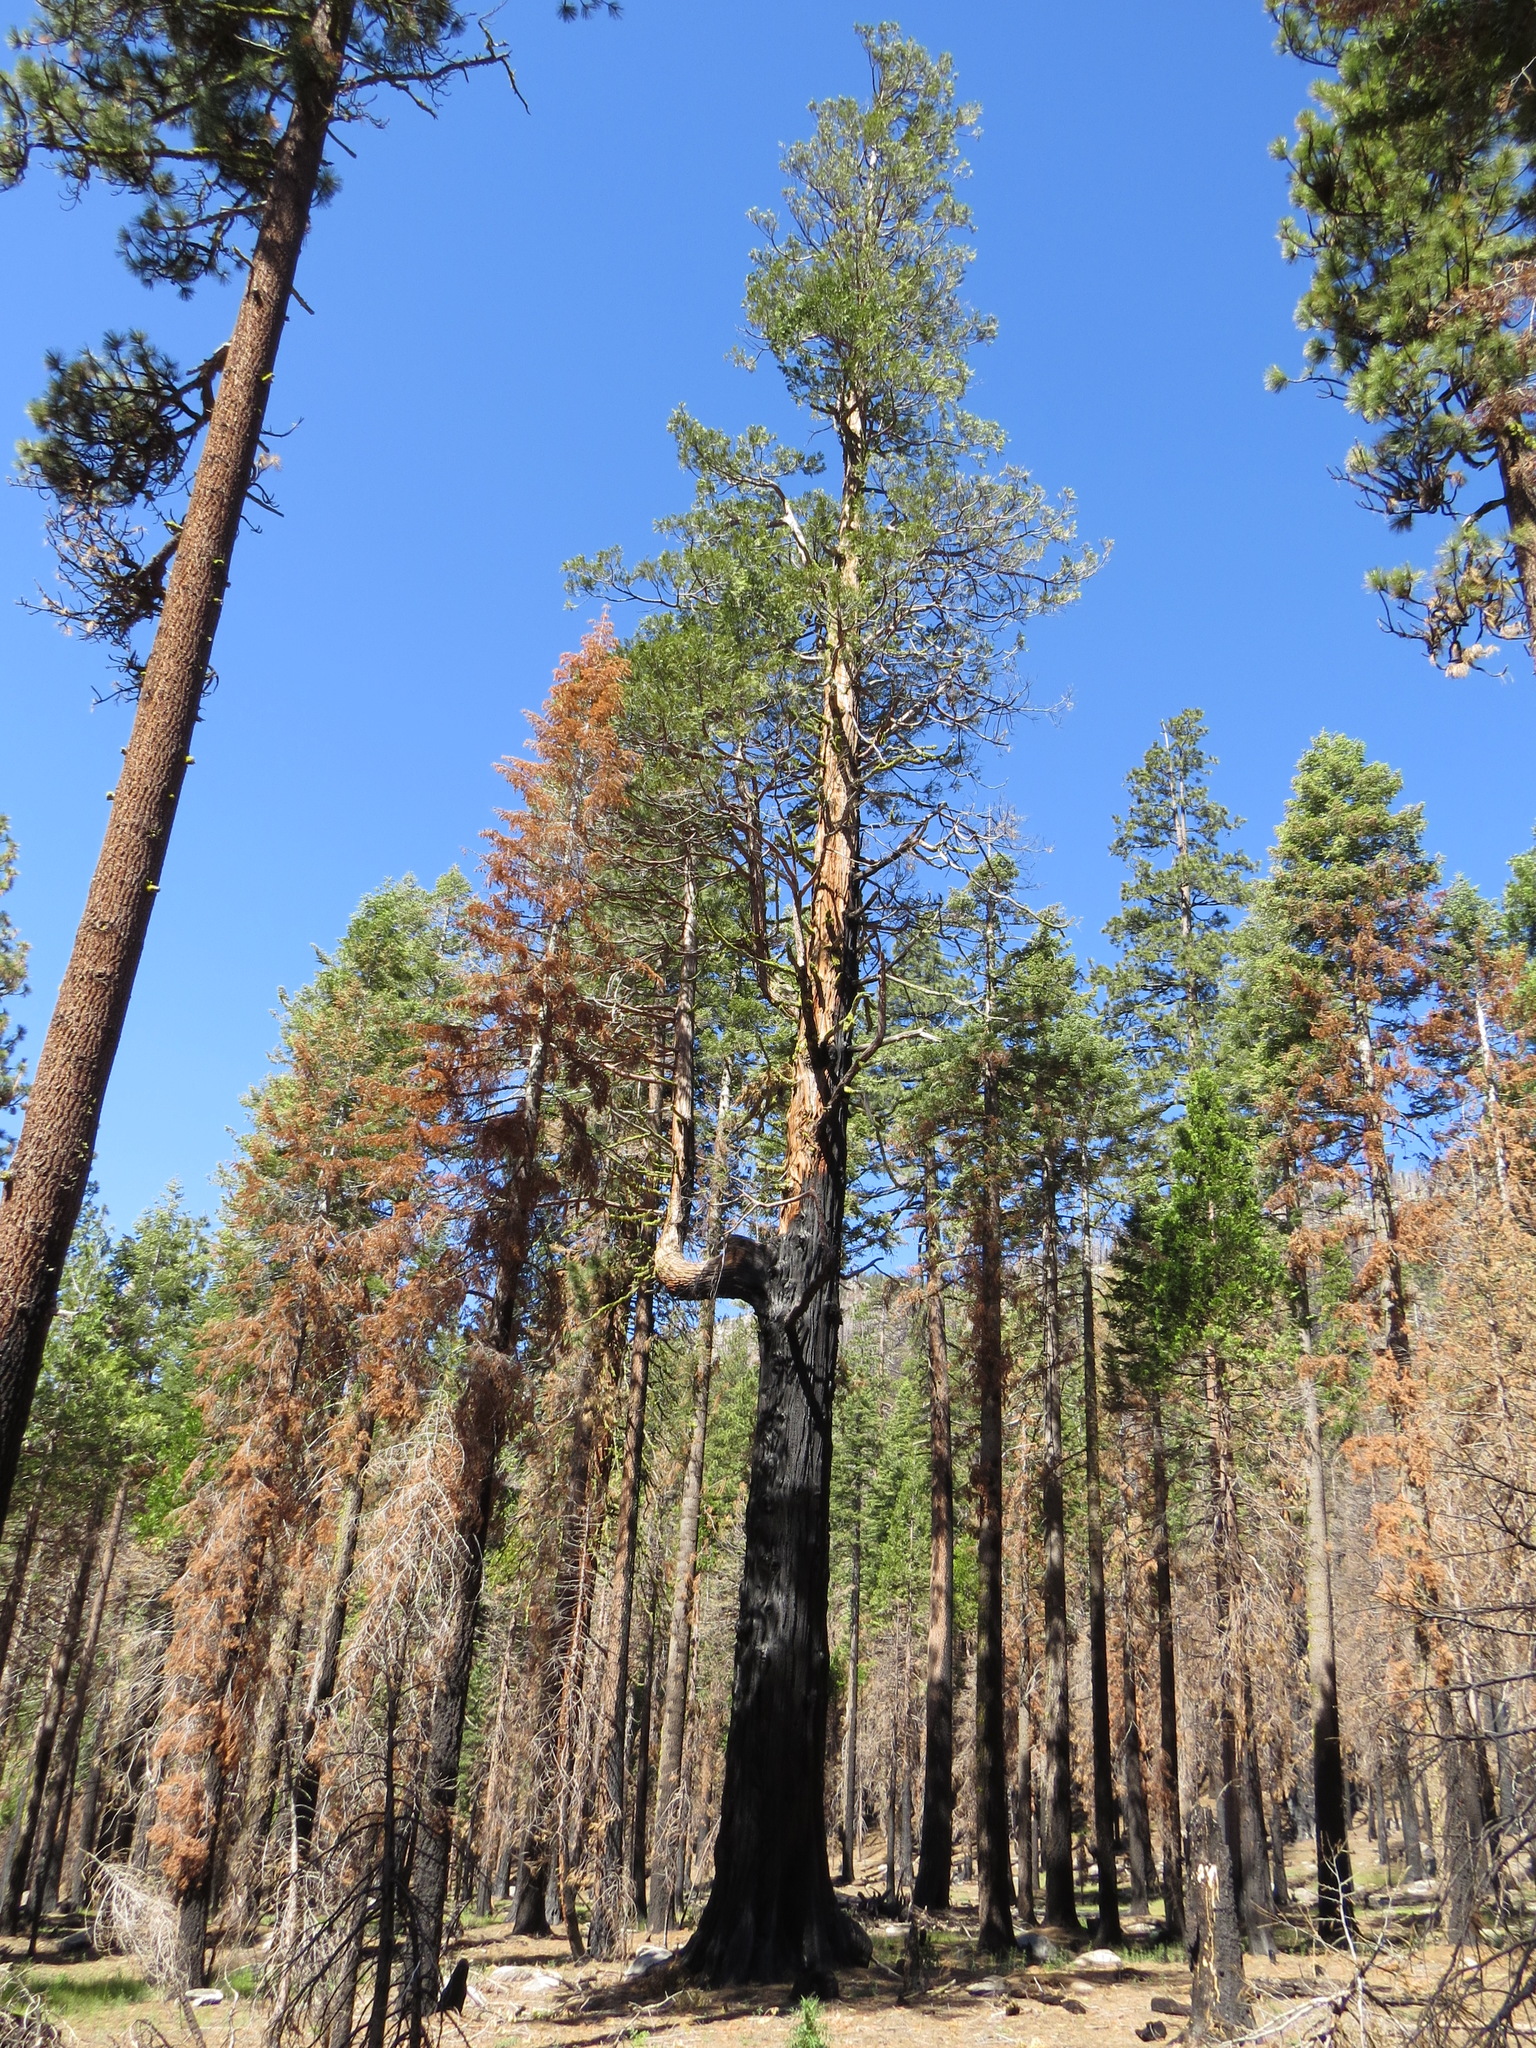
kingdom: Plantae
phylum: Tracheophyta
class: Pinopsida
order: Pinales
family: Cupressaceae
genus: Calocedrus
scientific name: Calocedrus decurrens
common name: Californian incense-cedar
